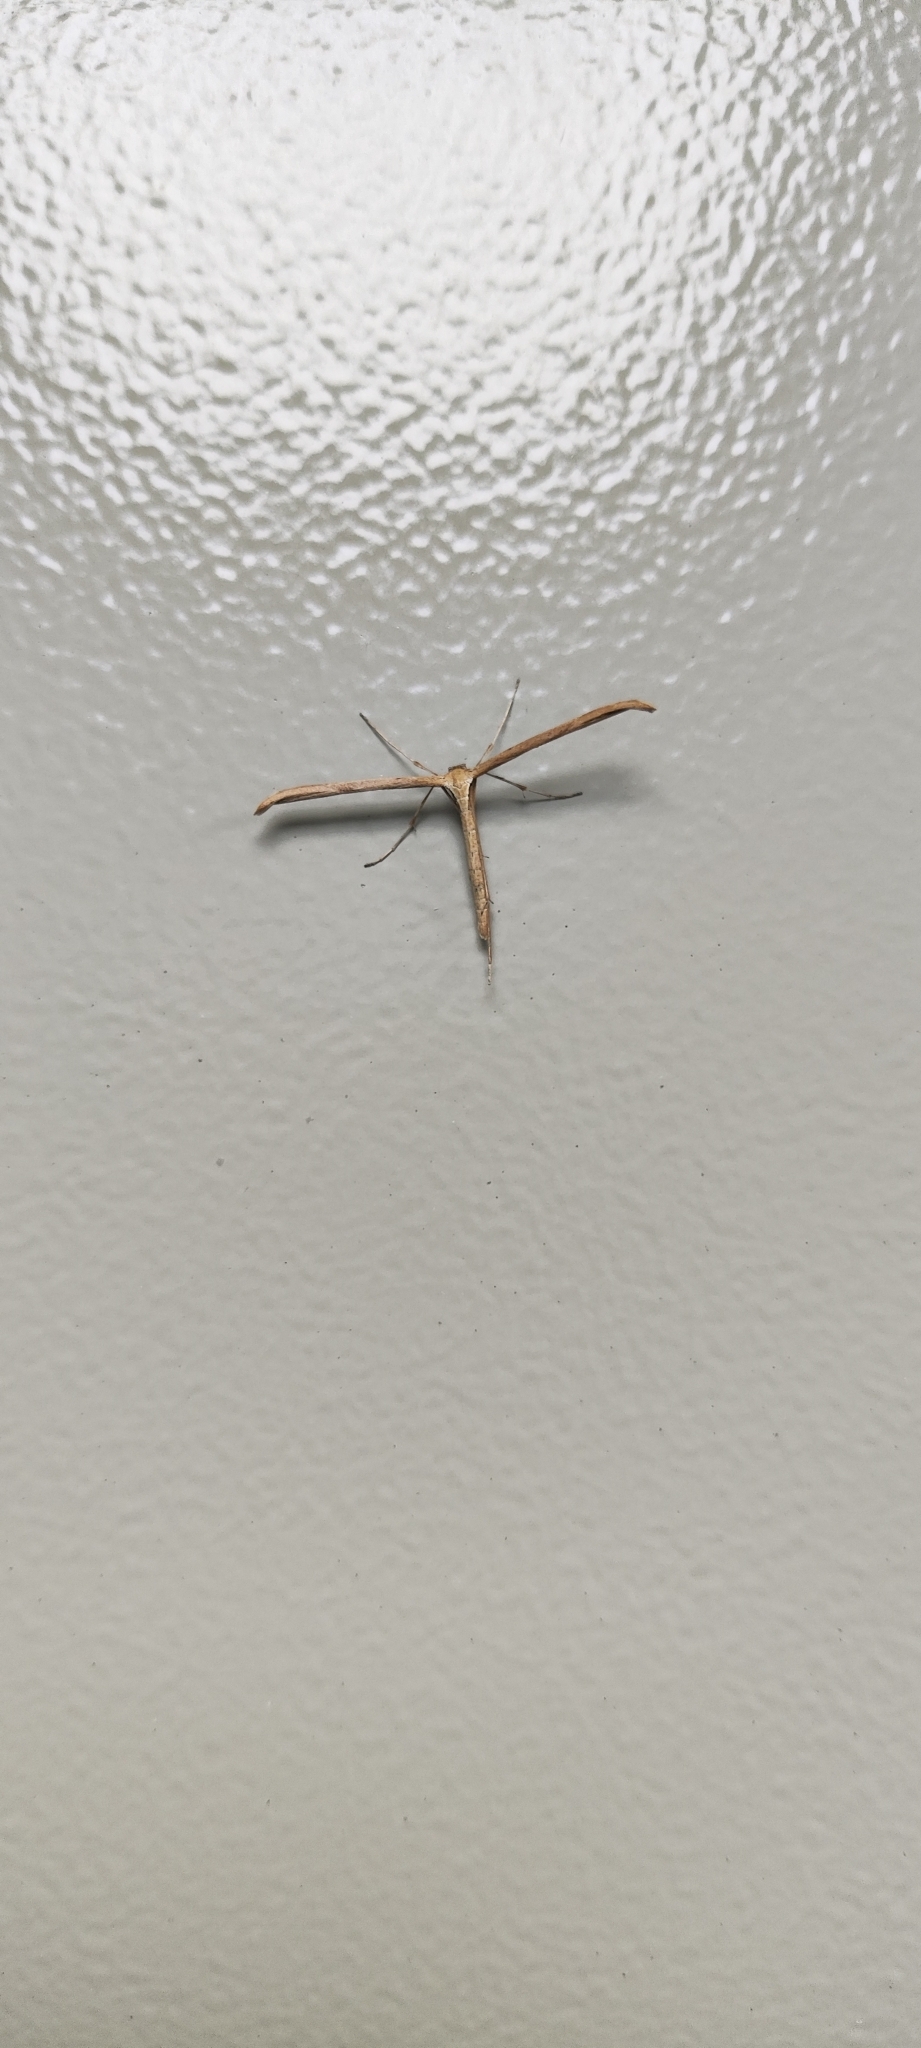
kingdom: Animalia
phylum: Arthropoda
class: Insecta
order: Lepidoptera
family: Pterophoridae
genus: Emmelina
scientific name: Emmelina monodactyla
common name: Common plume
